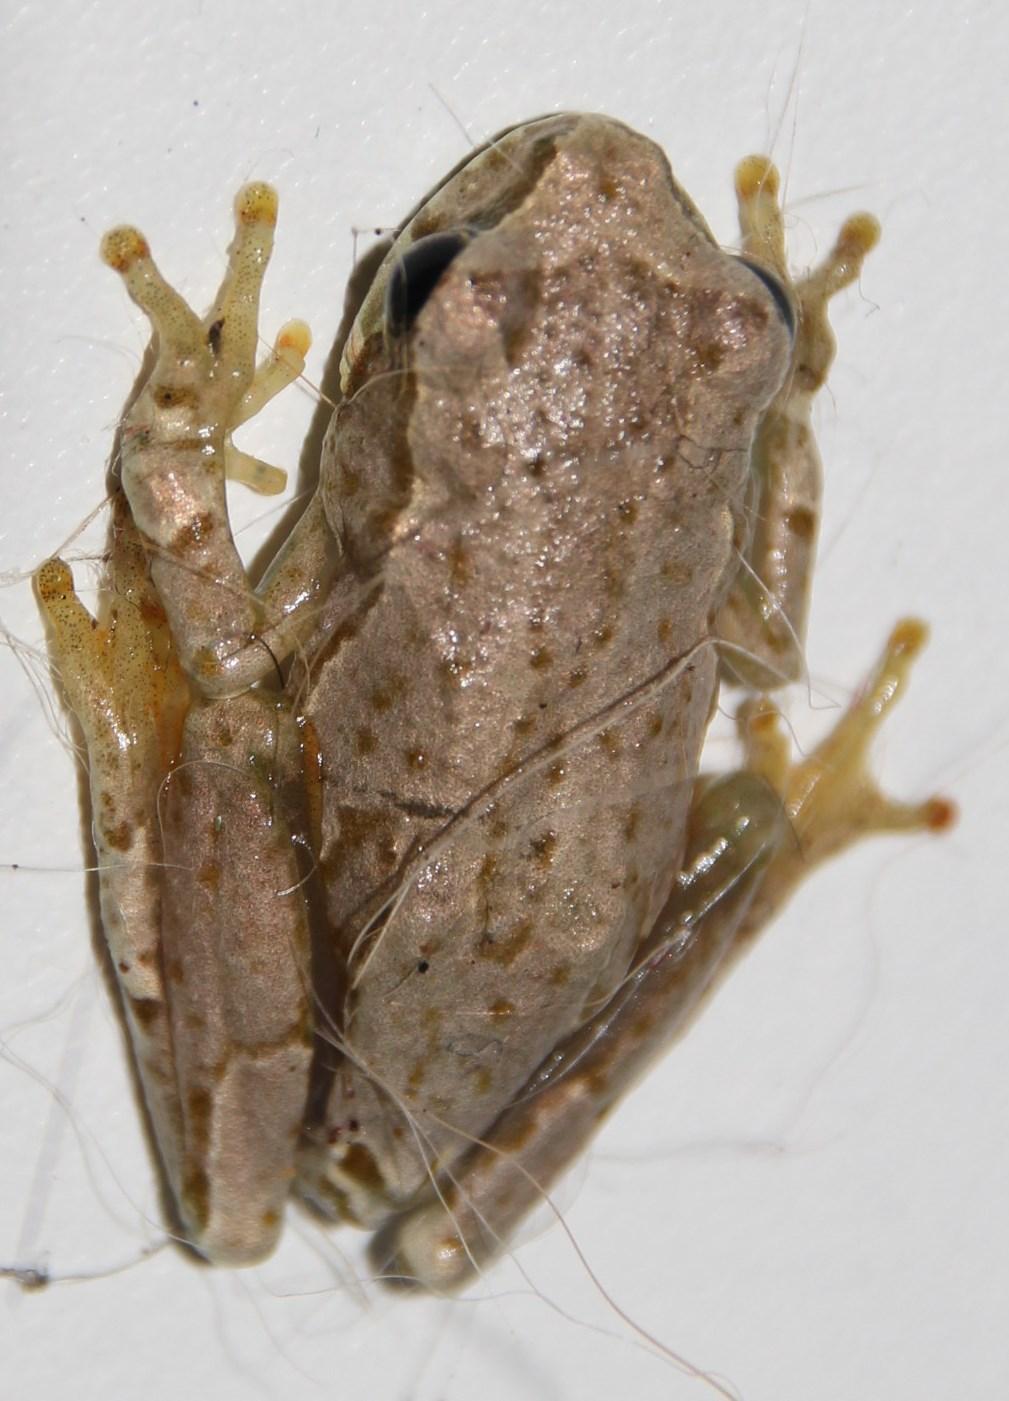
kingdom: Animalia
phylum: Chordata
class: Amphibia
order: Anura
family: Hyperoliidae
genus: Hyperolius
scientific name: Hyperolius marmoratus
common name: Painted reed frog
